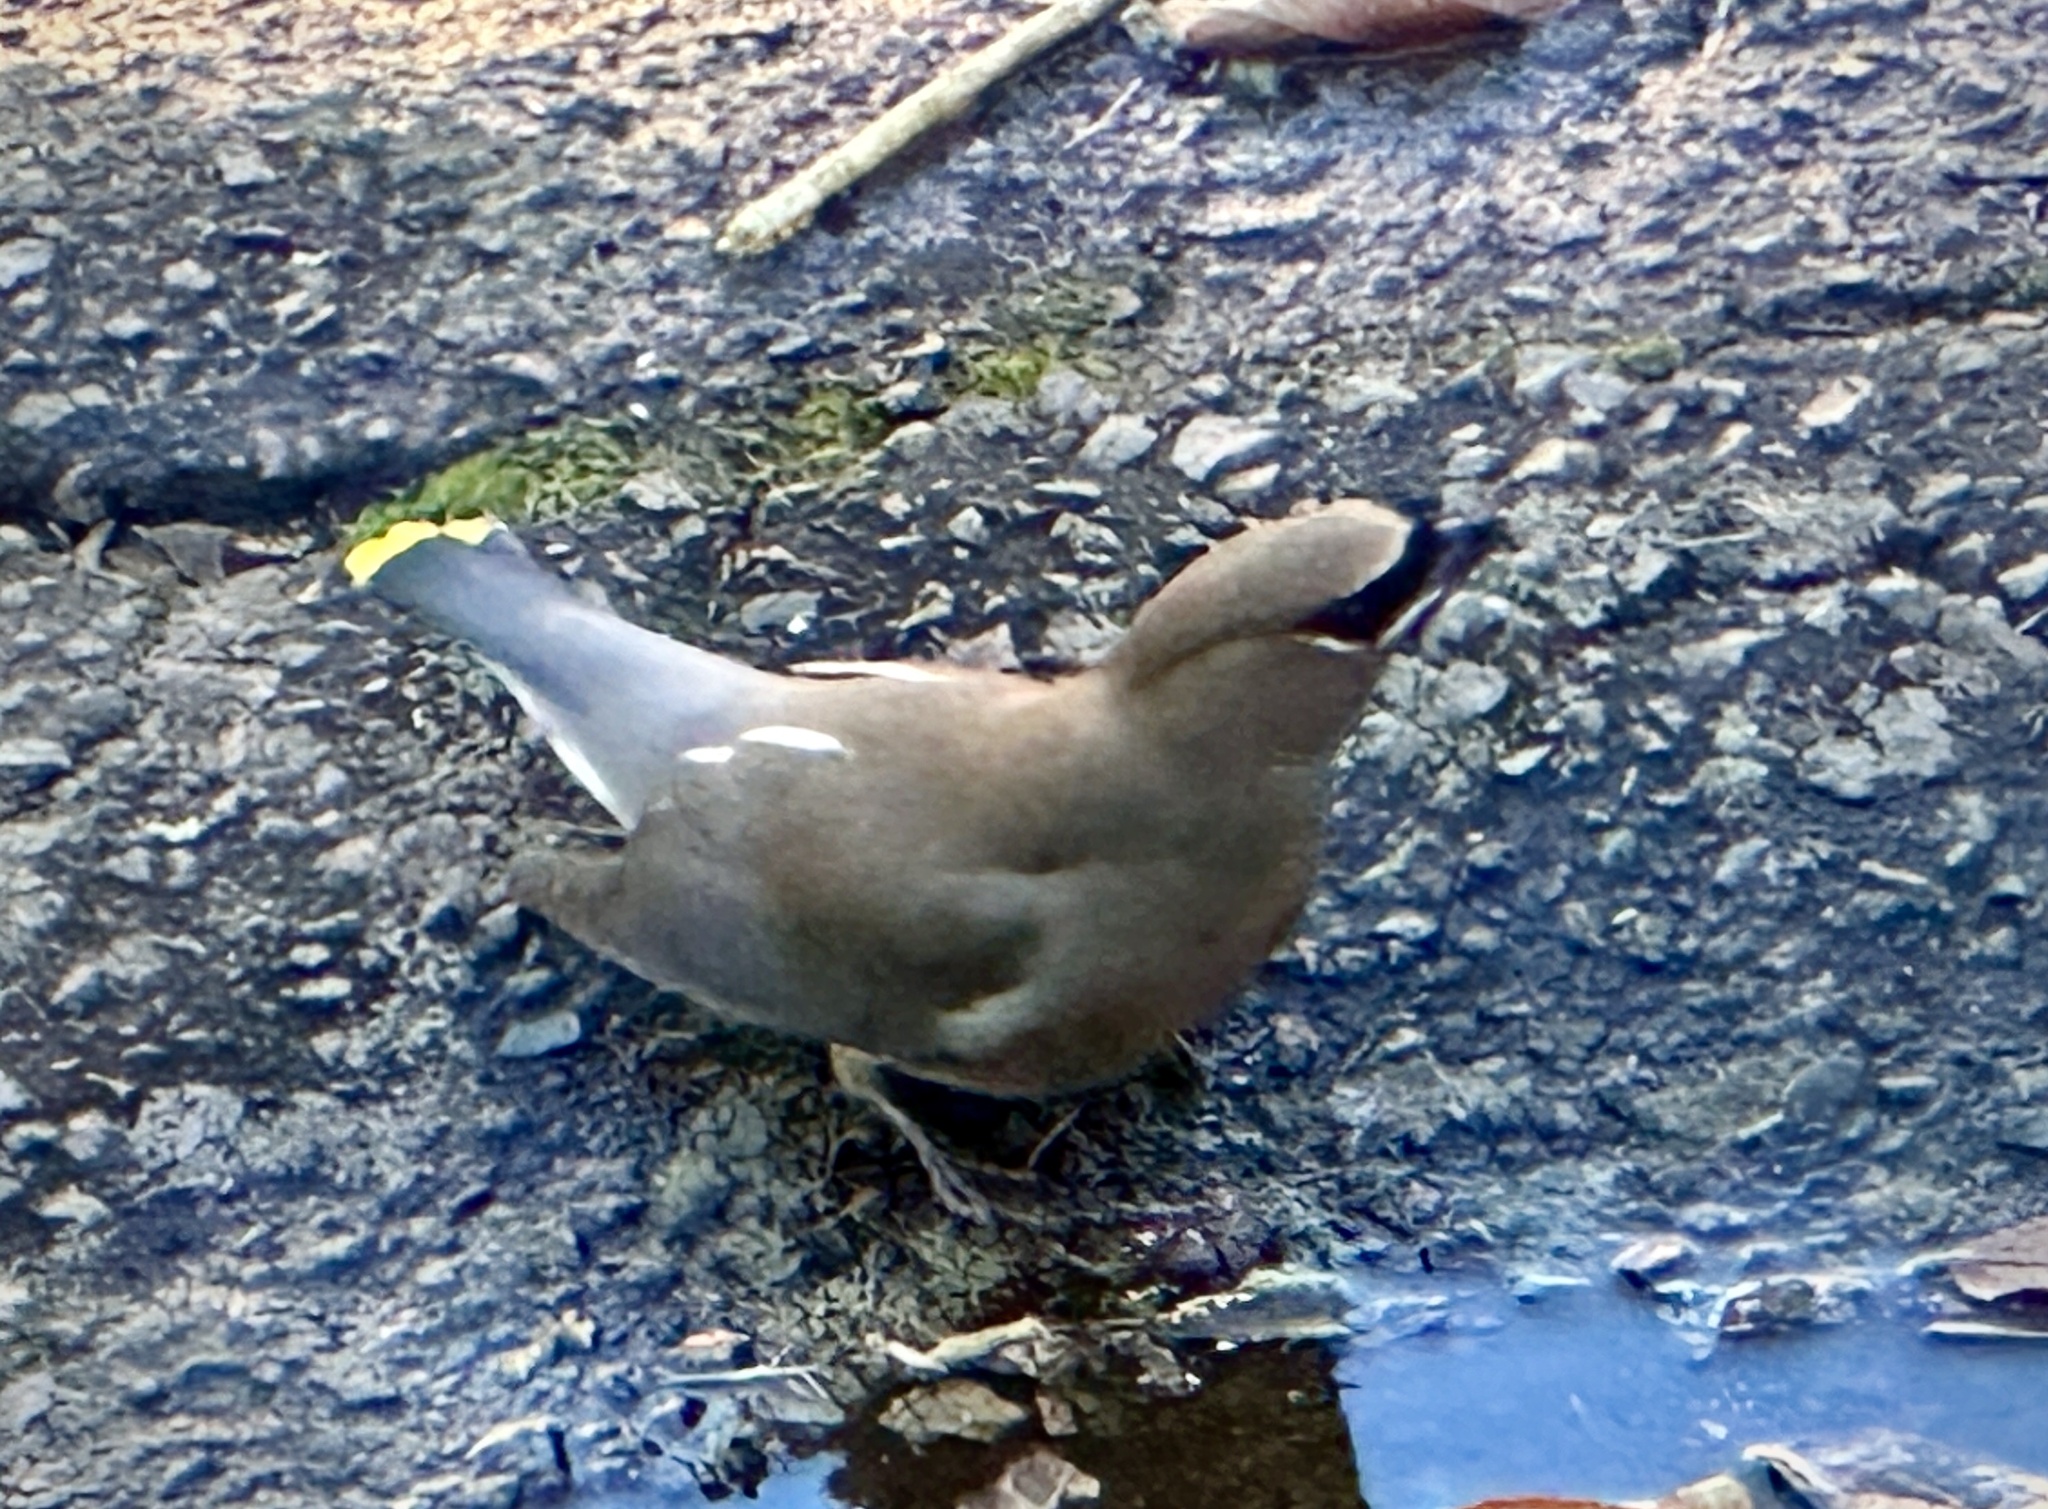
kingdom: Animalia
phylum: Chordata
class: Aves
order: Passeriformes
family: Bombycillidae
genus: Bombycilla
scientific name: Bombycilla cedrorum
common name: Cedar waxwing
